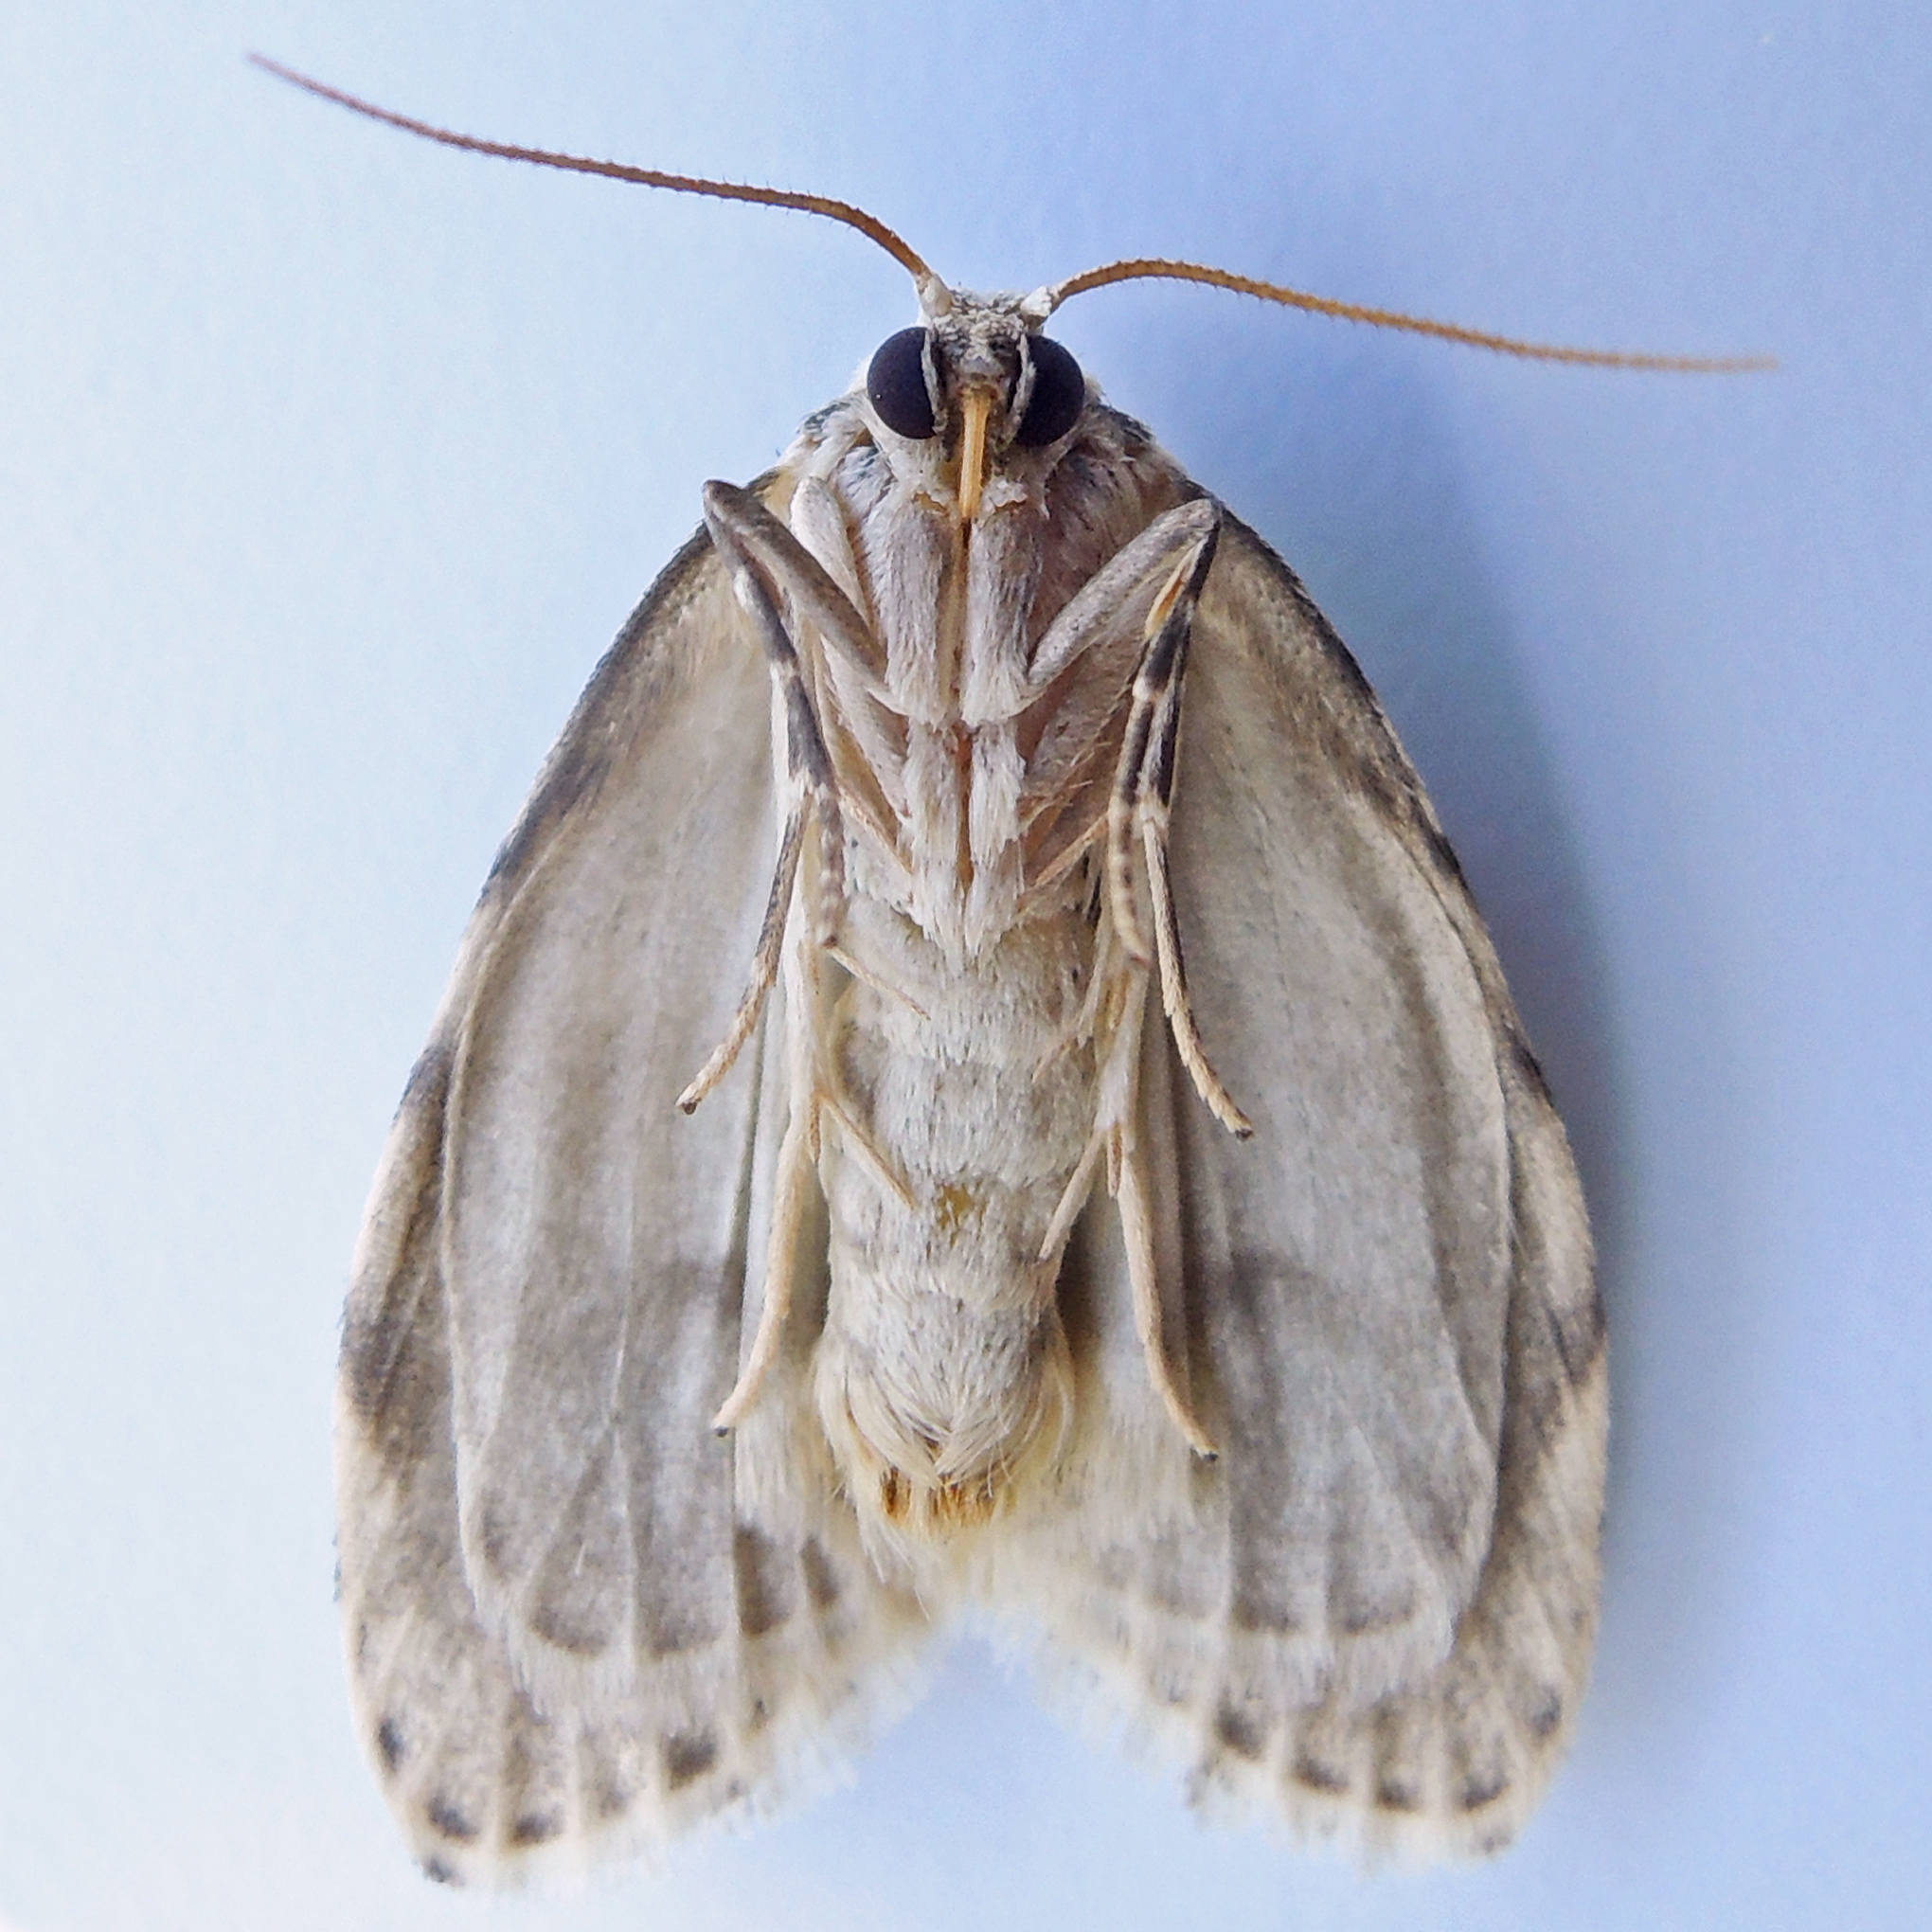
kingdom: Animalia
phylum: Arthropoda
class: Insecta
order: Lepidoptera
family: Erebidae
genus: Clemensia
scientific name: Clemensia albata
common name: Little white lichen moth
